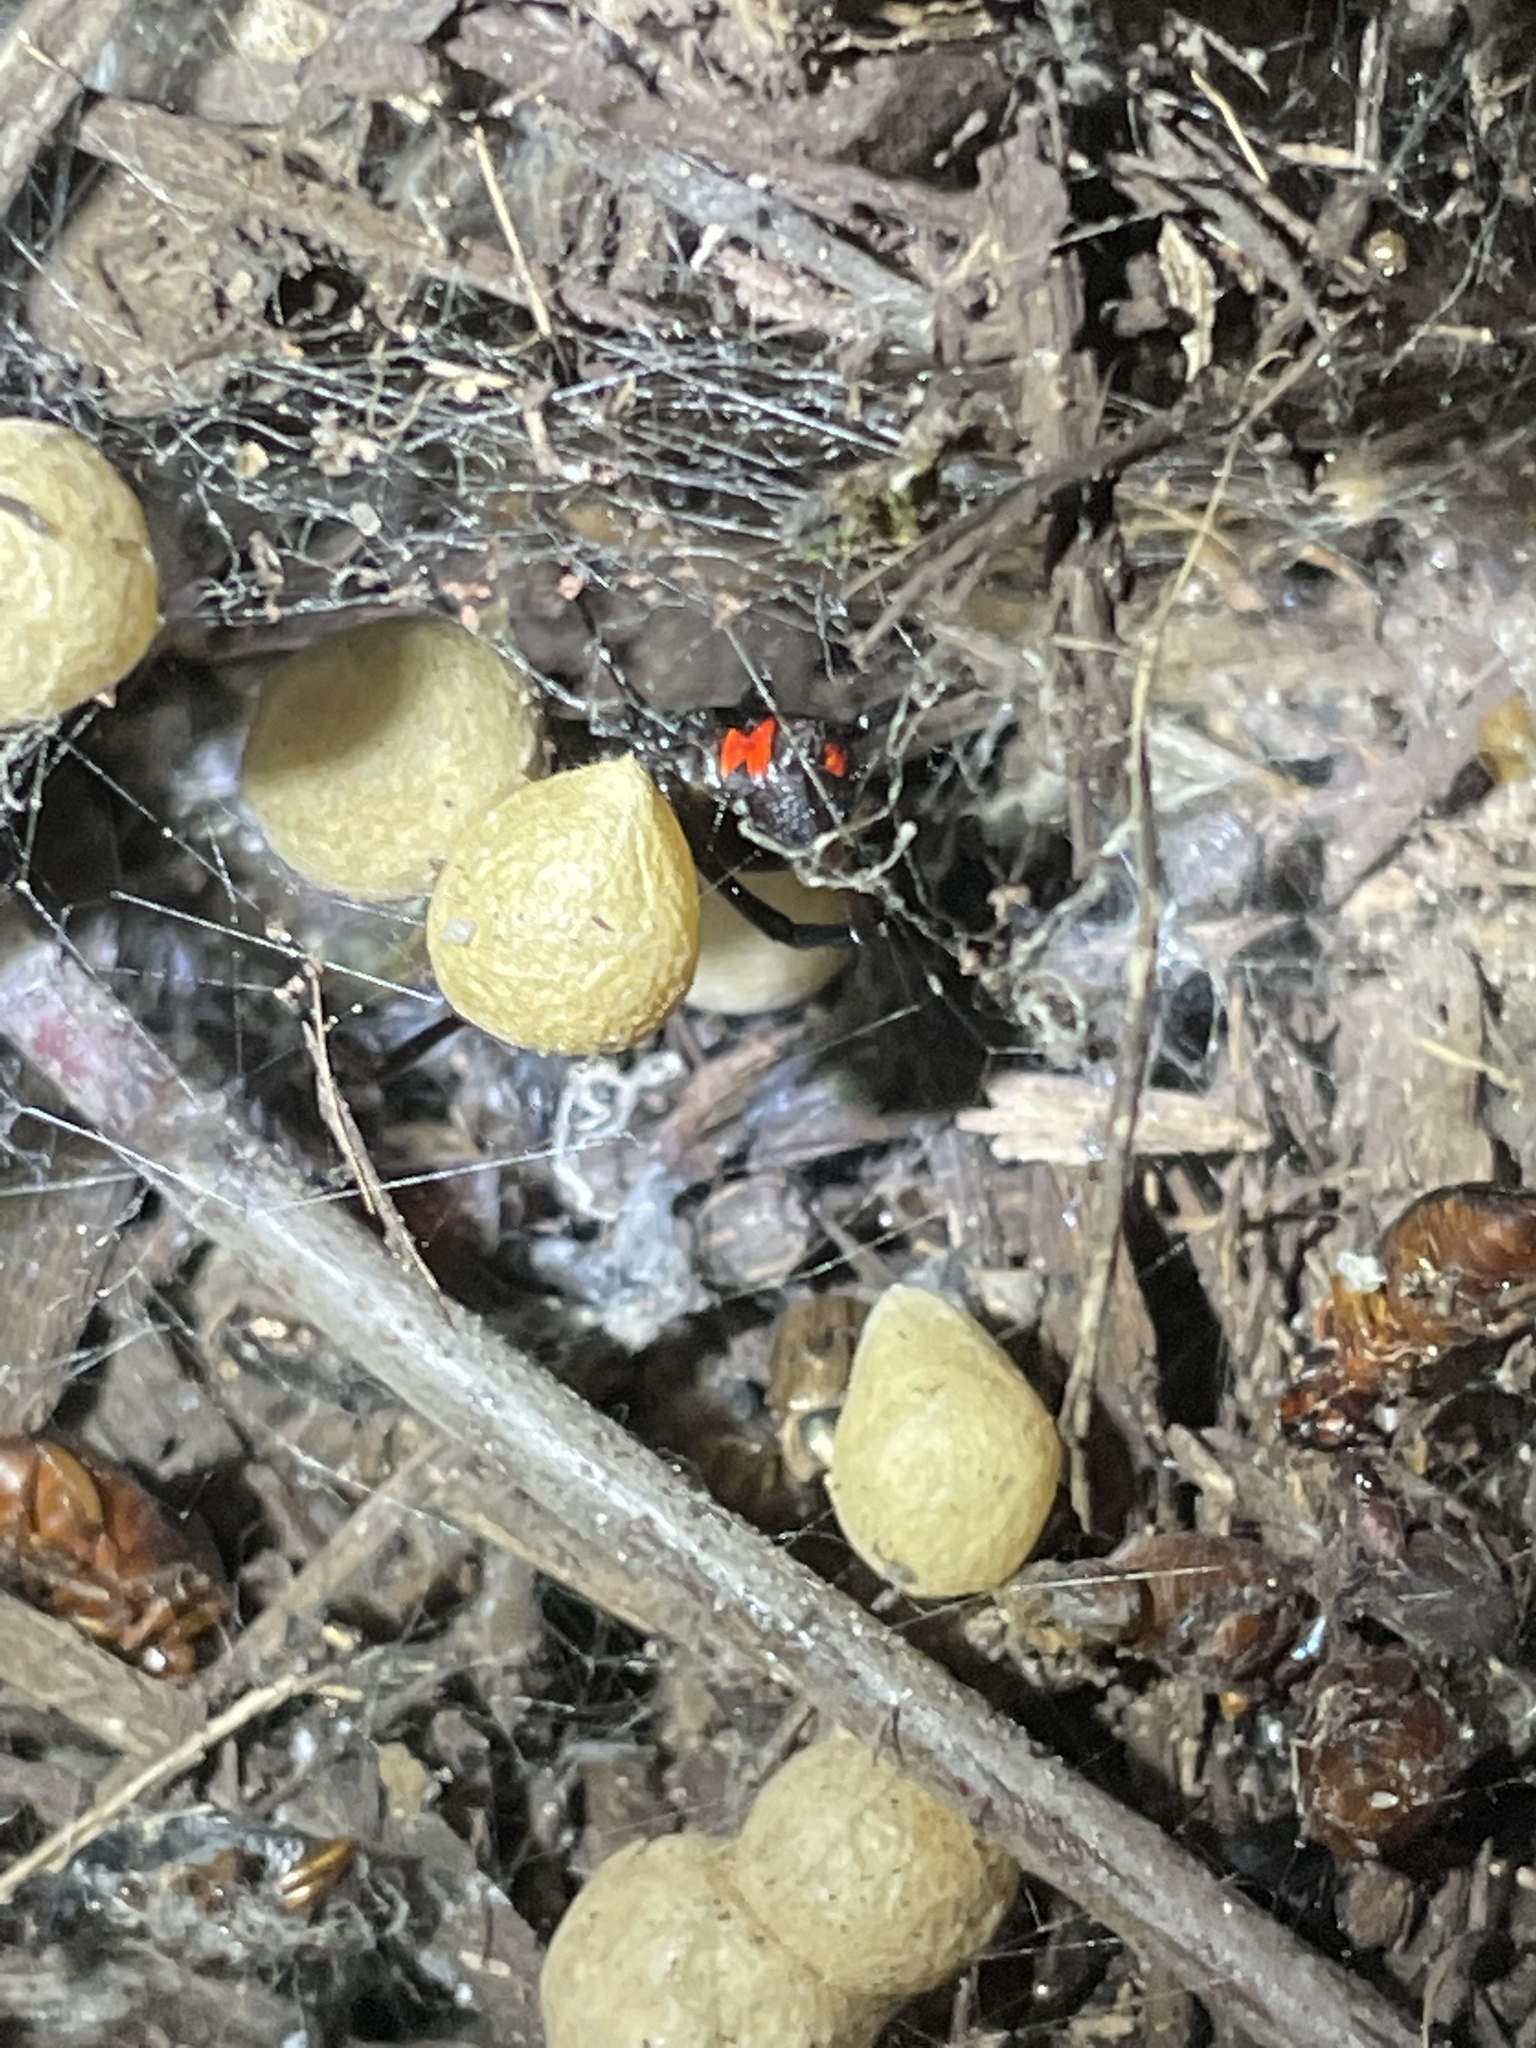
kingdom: Animalia
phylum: Arthropoda
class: Arachnida
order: Araneae
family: Theridiidae
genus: Latrodectus
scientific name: Latrodectus mactans
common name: Cobweb spiders
